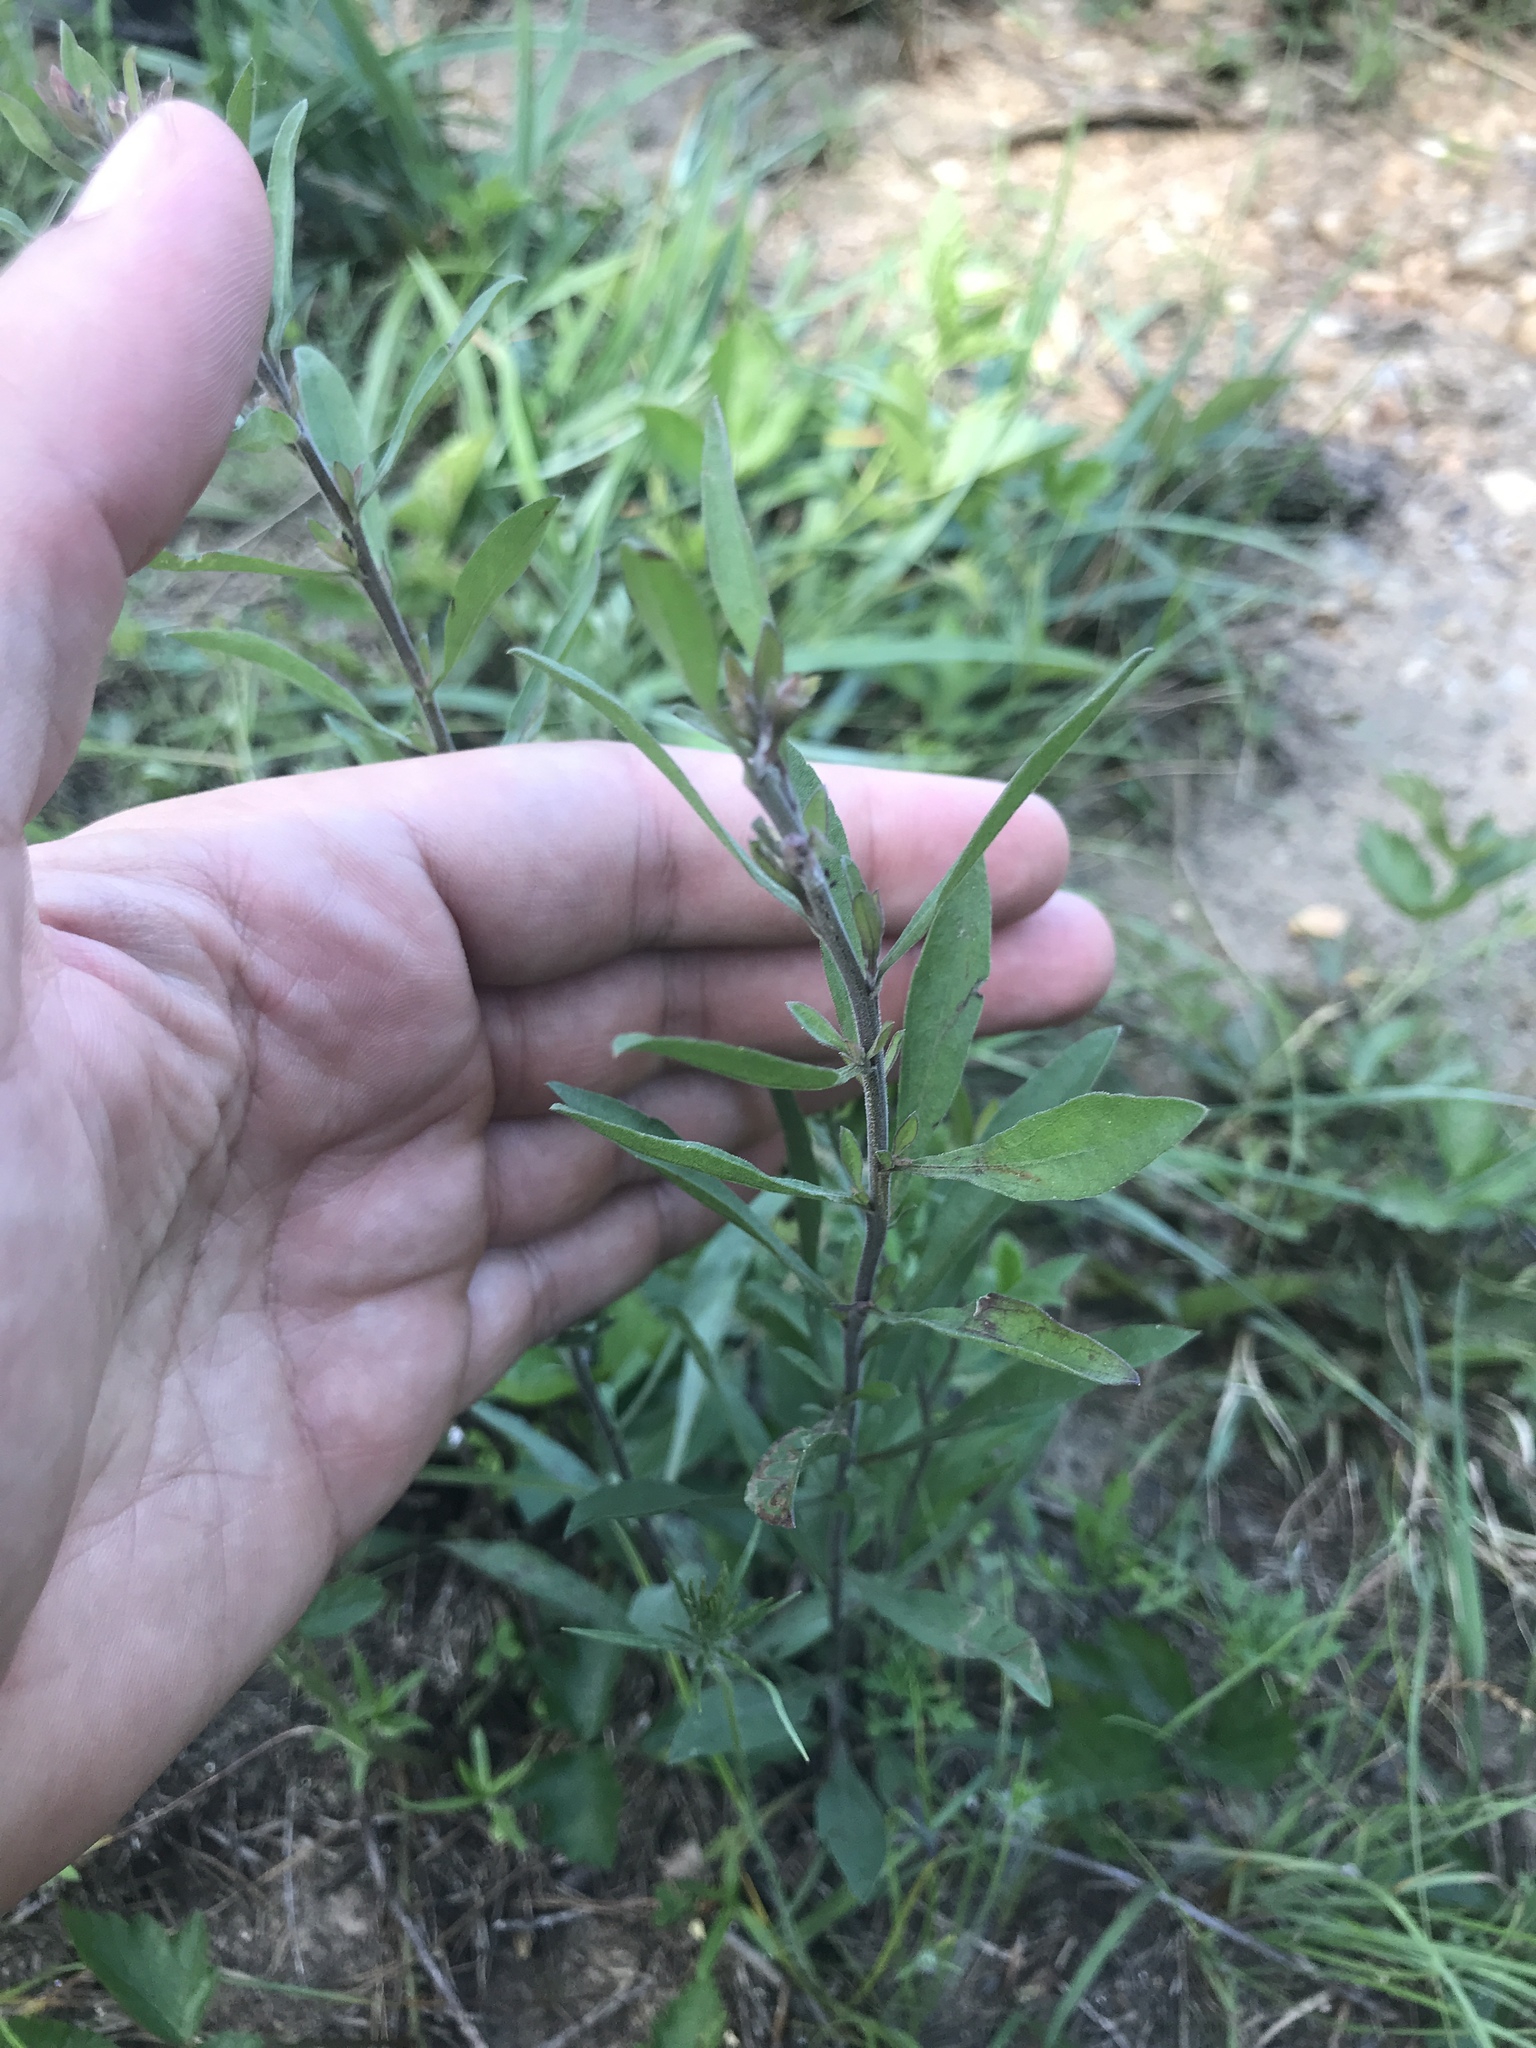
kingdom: Plantae
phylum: Tracheophyta
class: Magnoliopsida
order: Asterales
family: Asteraceae
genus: Solidago
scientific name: Solidago nemoralis
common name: Grey goldenrod
